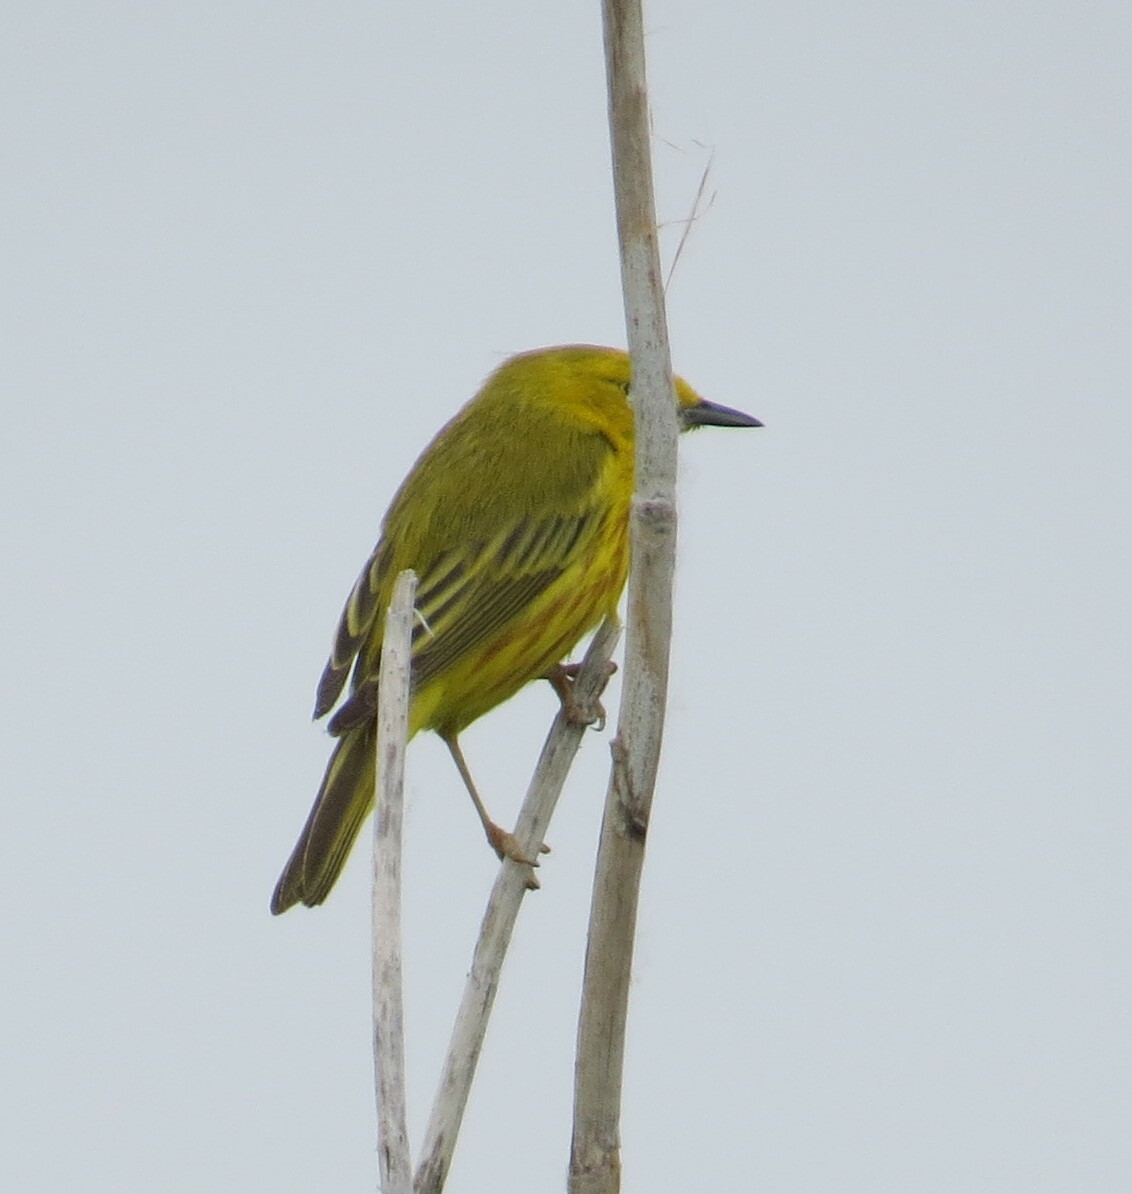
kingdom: Animalia
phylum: Chordata
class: Aves
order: Passeriformes
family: Parulidae
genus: Setophaga
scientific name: Setophaga petechia
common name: Yellow warbler
